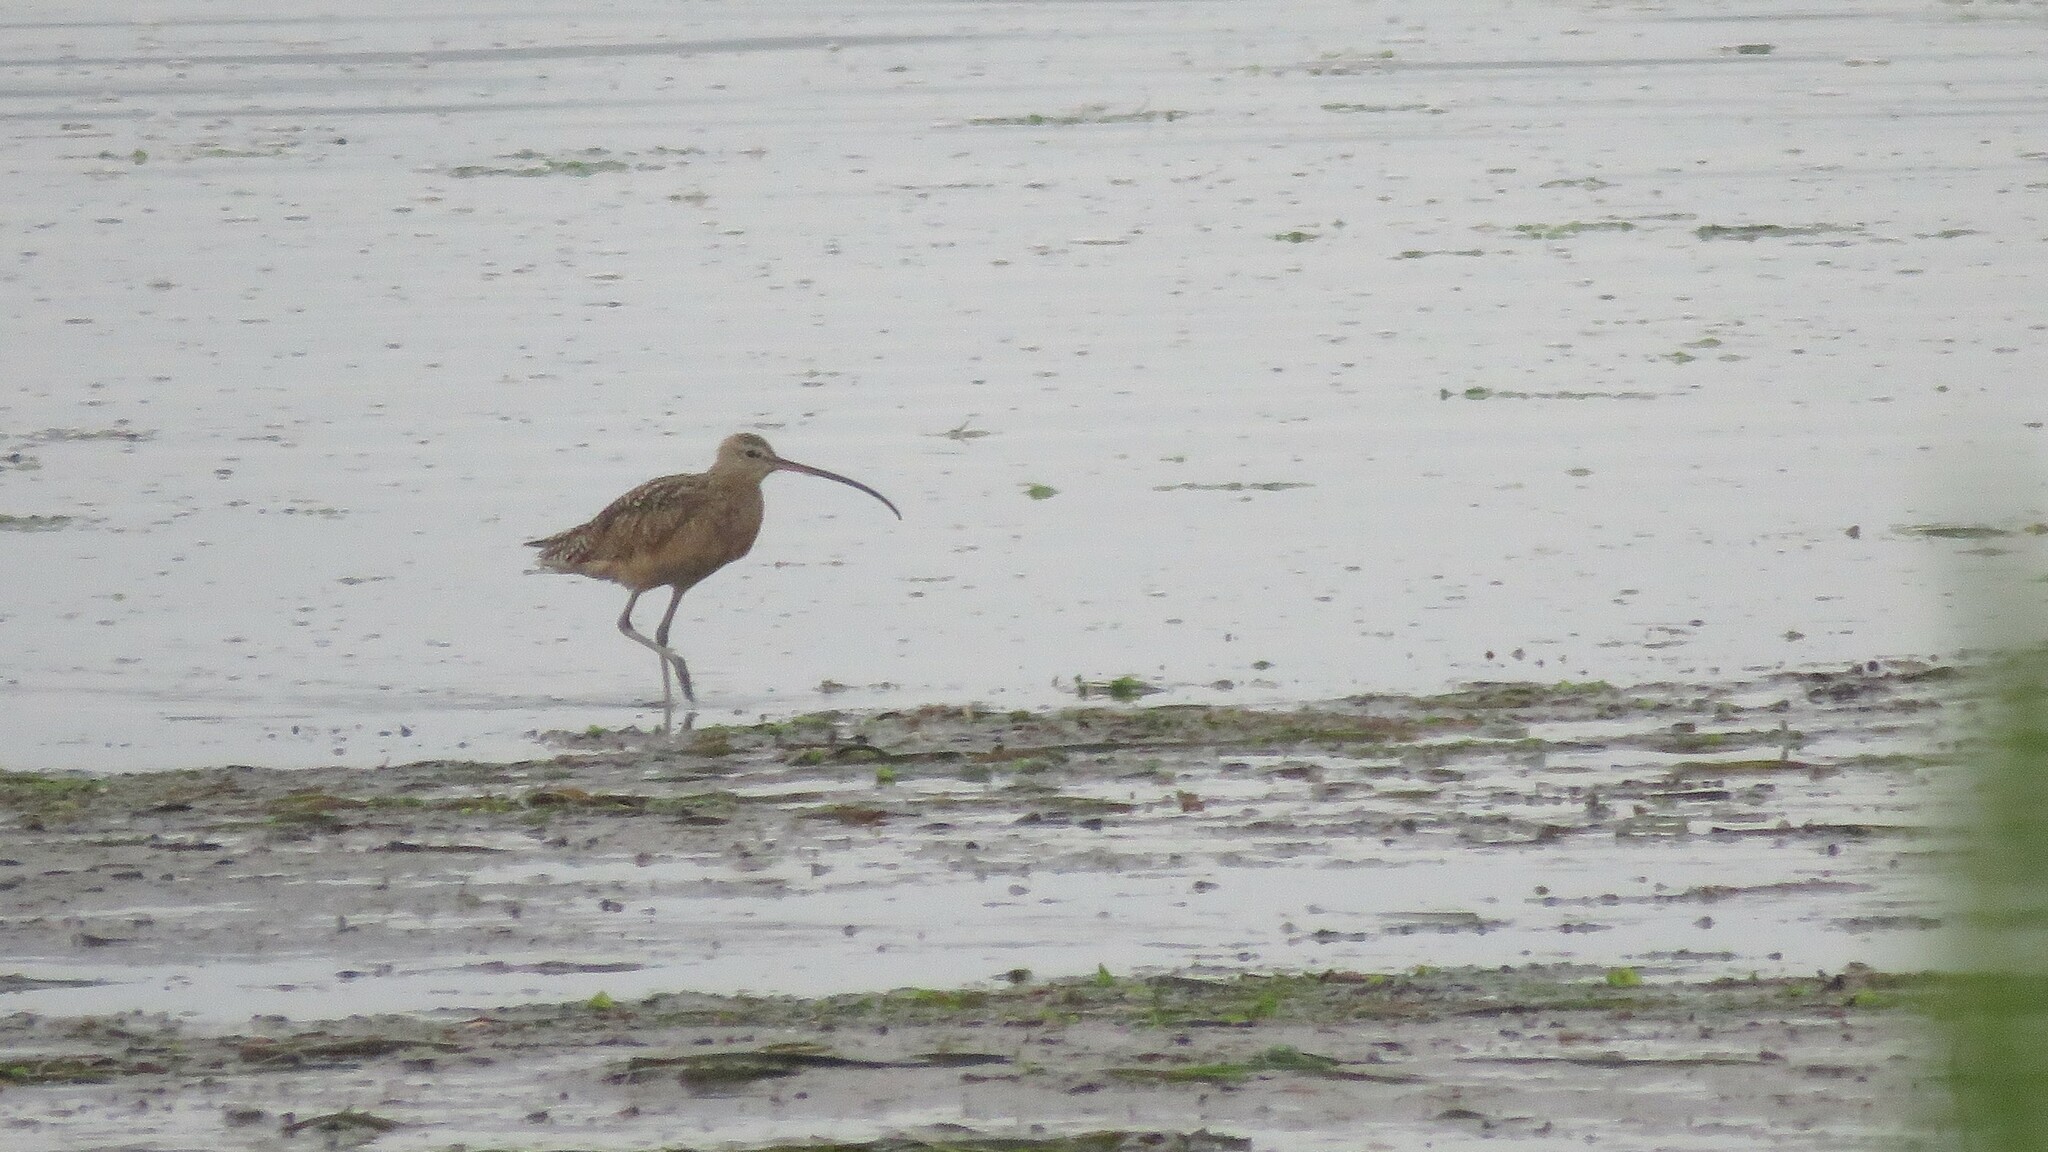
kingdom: Animalia
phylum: Chordata
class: Aves
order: Charadriiformes
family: Scolopacidae
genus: Numenius
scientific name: Numenius americanus
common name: Long-billed curlew
